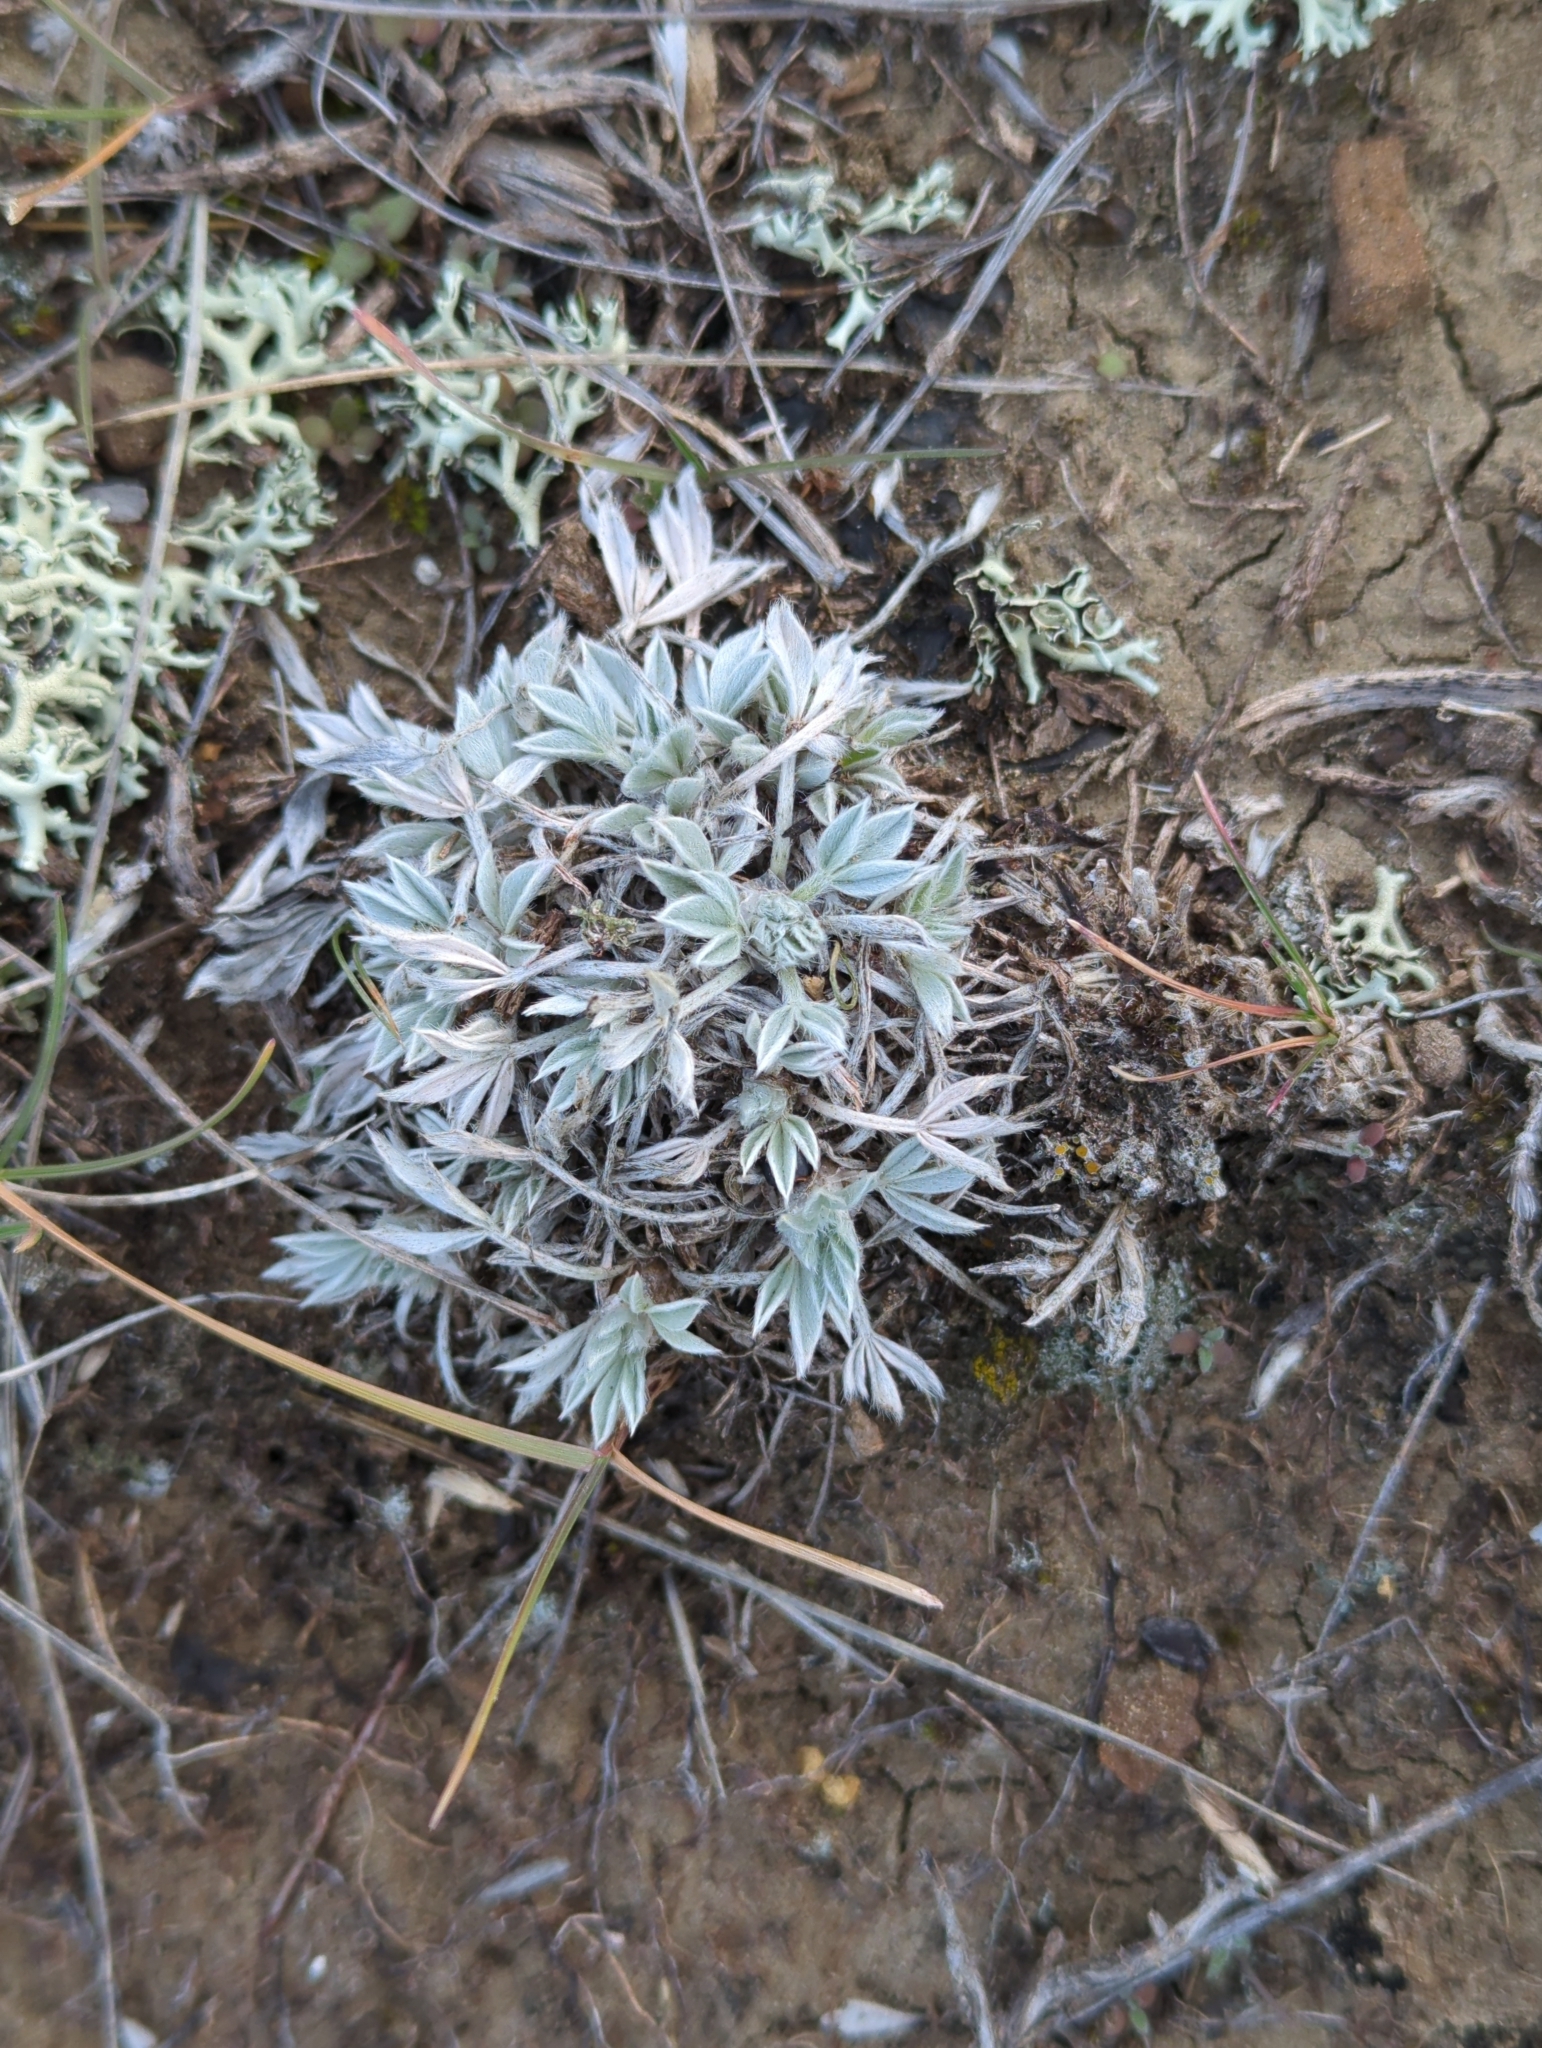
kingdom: Plantae
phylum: Tracheophyta
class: Magnoliopsida
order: Fabales
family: Fabaceae
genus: Astragalus
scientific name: Astragalus gilviflorus
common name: Cushion milk-vetch
